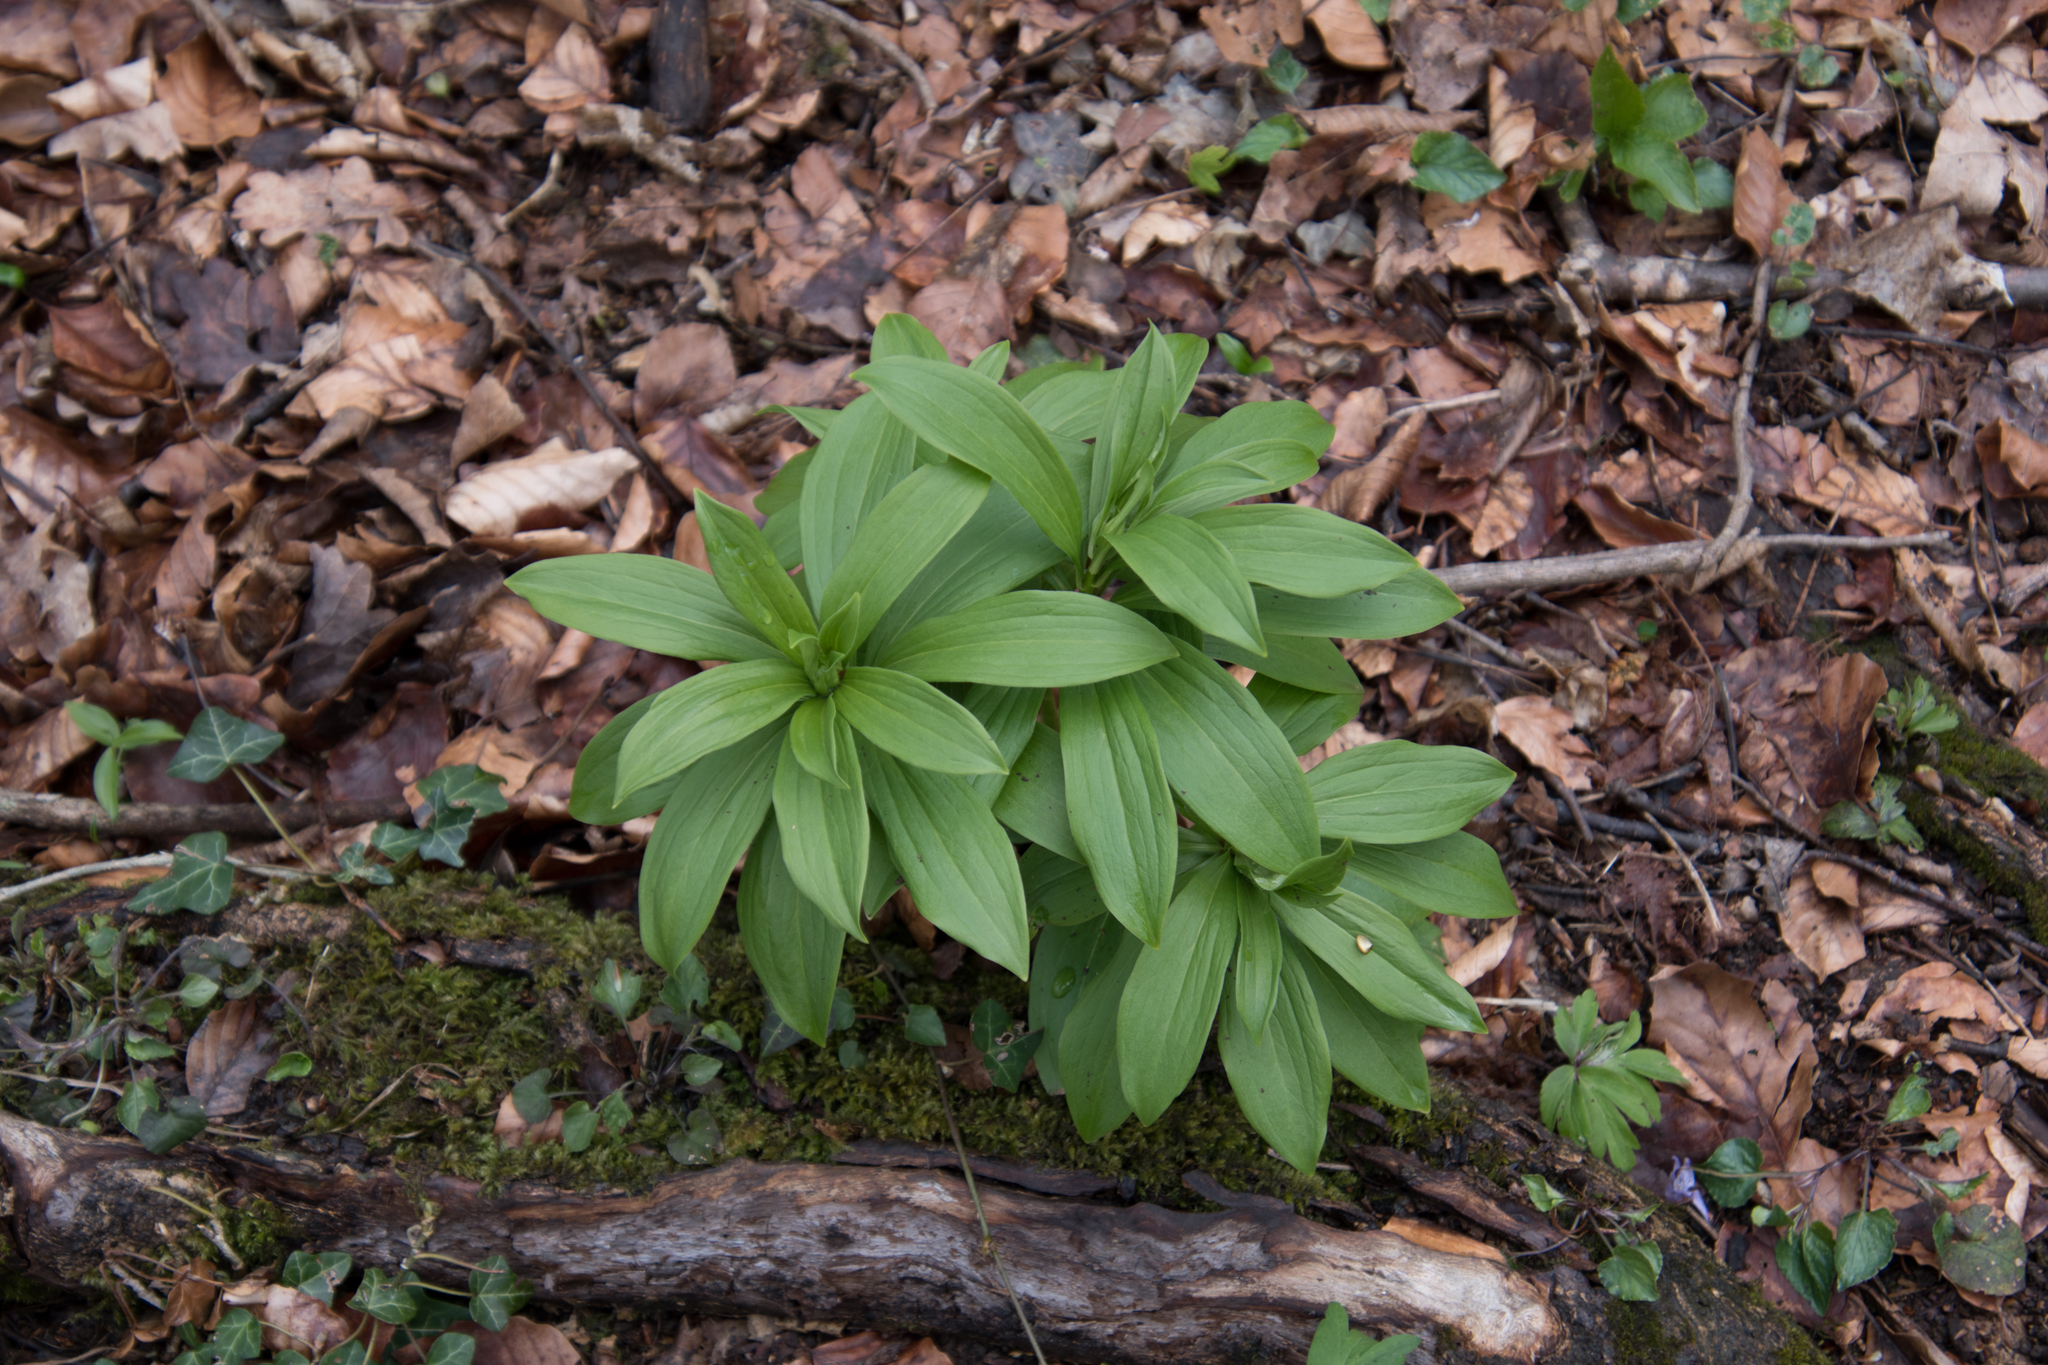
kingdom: Plantae
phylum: Tracheophyta
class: Liliopsida
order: Liliales
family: Liliaceae
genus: Lilium
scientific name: Lilium martagon
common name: Martagon lily
